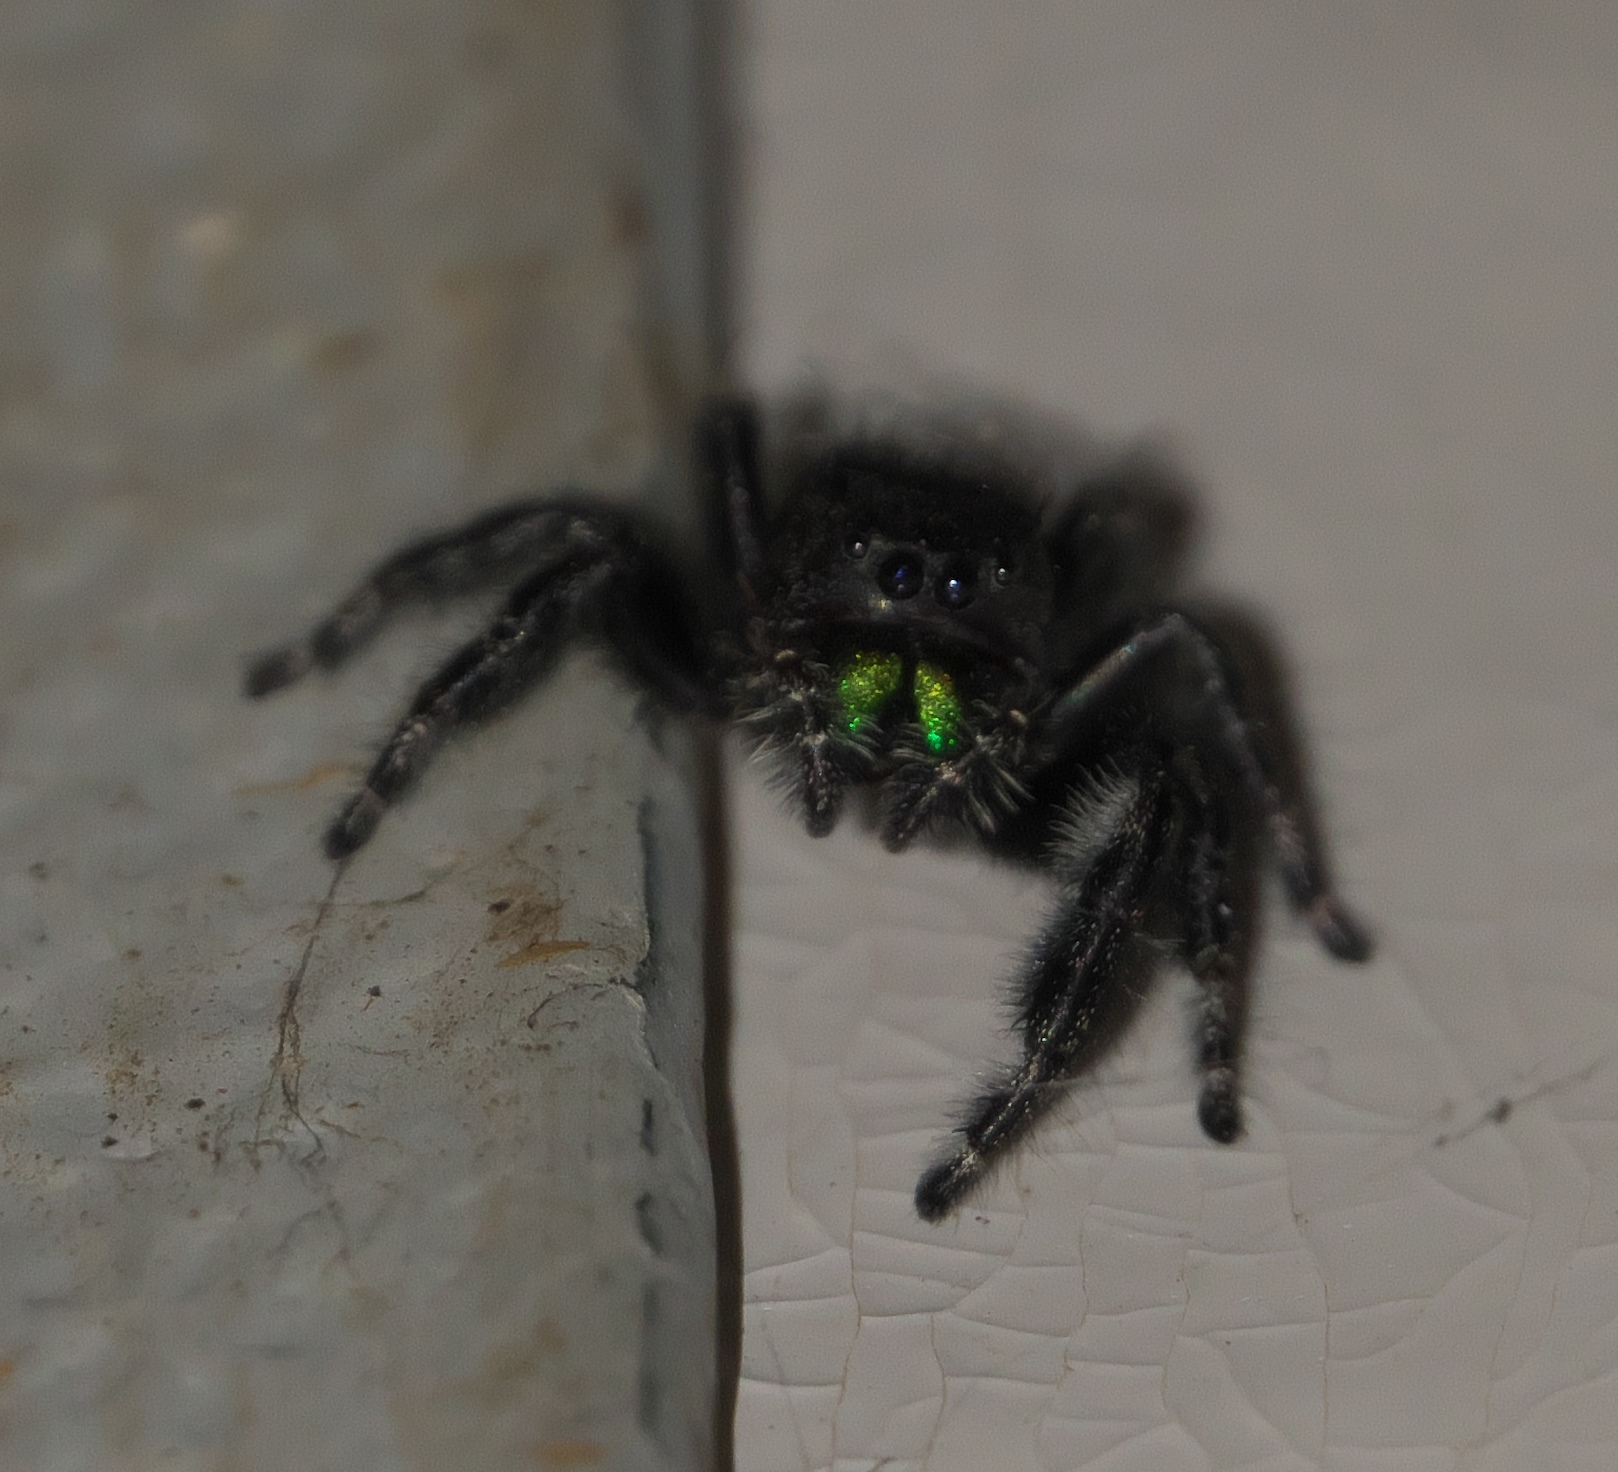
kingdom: Animalia
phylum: Arthropoda
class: Arachnida
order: Araneae
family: Salticidae
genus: Phidippus
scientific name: Phidippus audax
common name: Bold jumper
